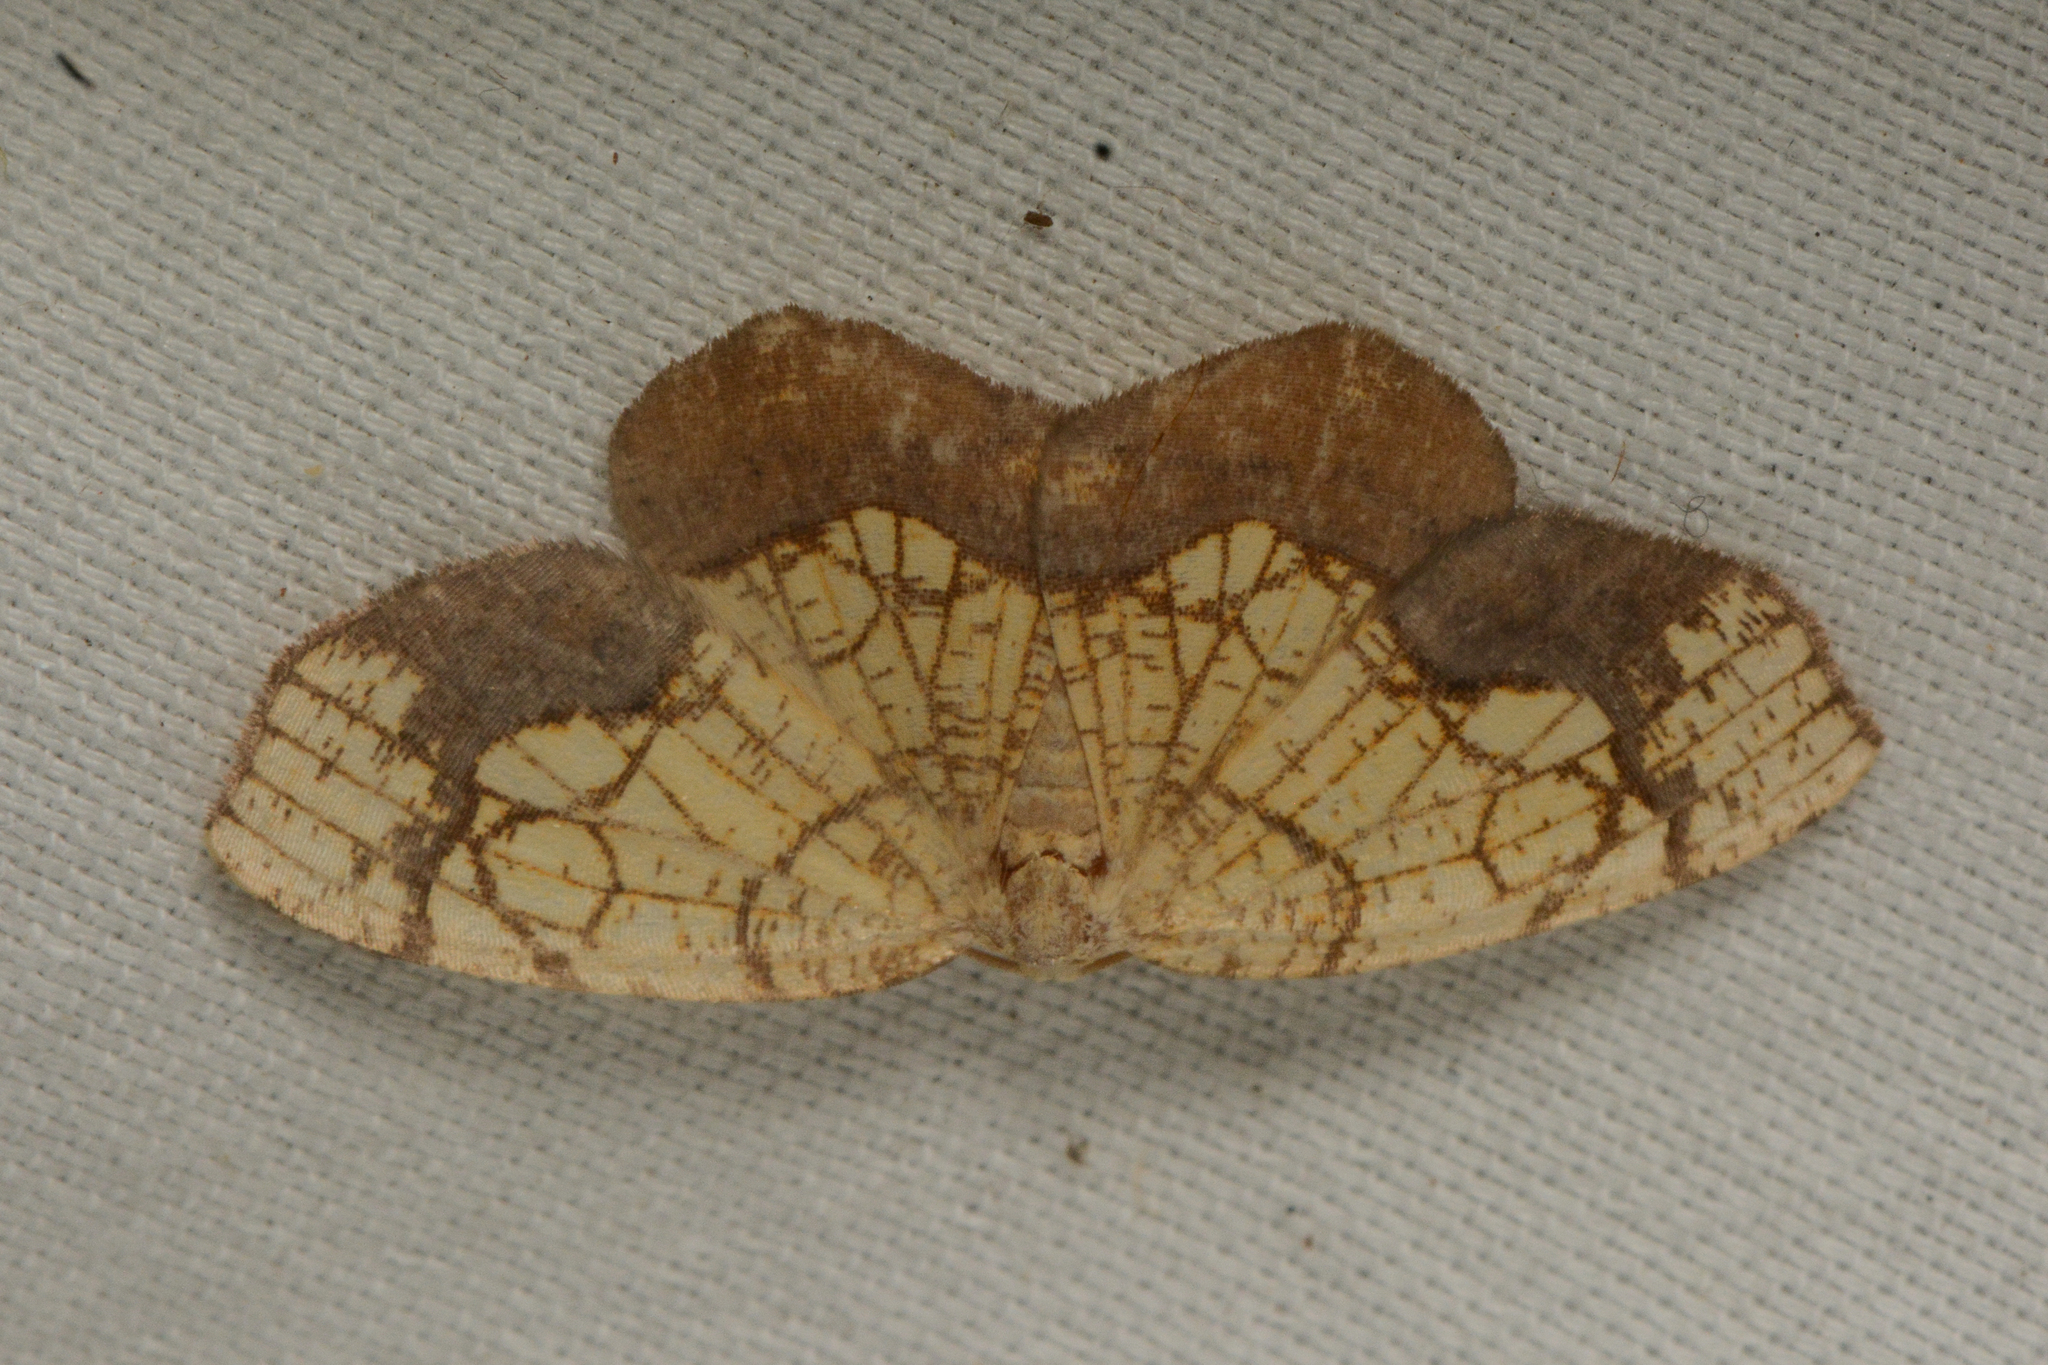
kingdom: Animalia
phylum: Arthropoda
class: Insecta
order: Lepidoptera
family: Geometridae
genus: Nematocampa
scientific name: Nematocampa resistaria
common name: Horned spanworm moth
